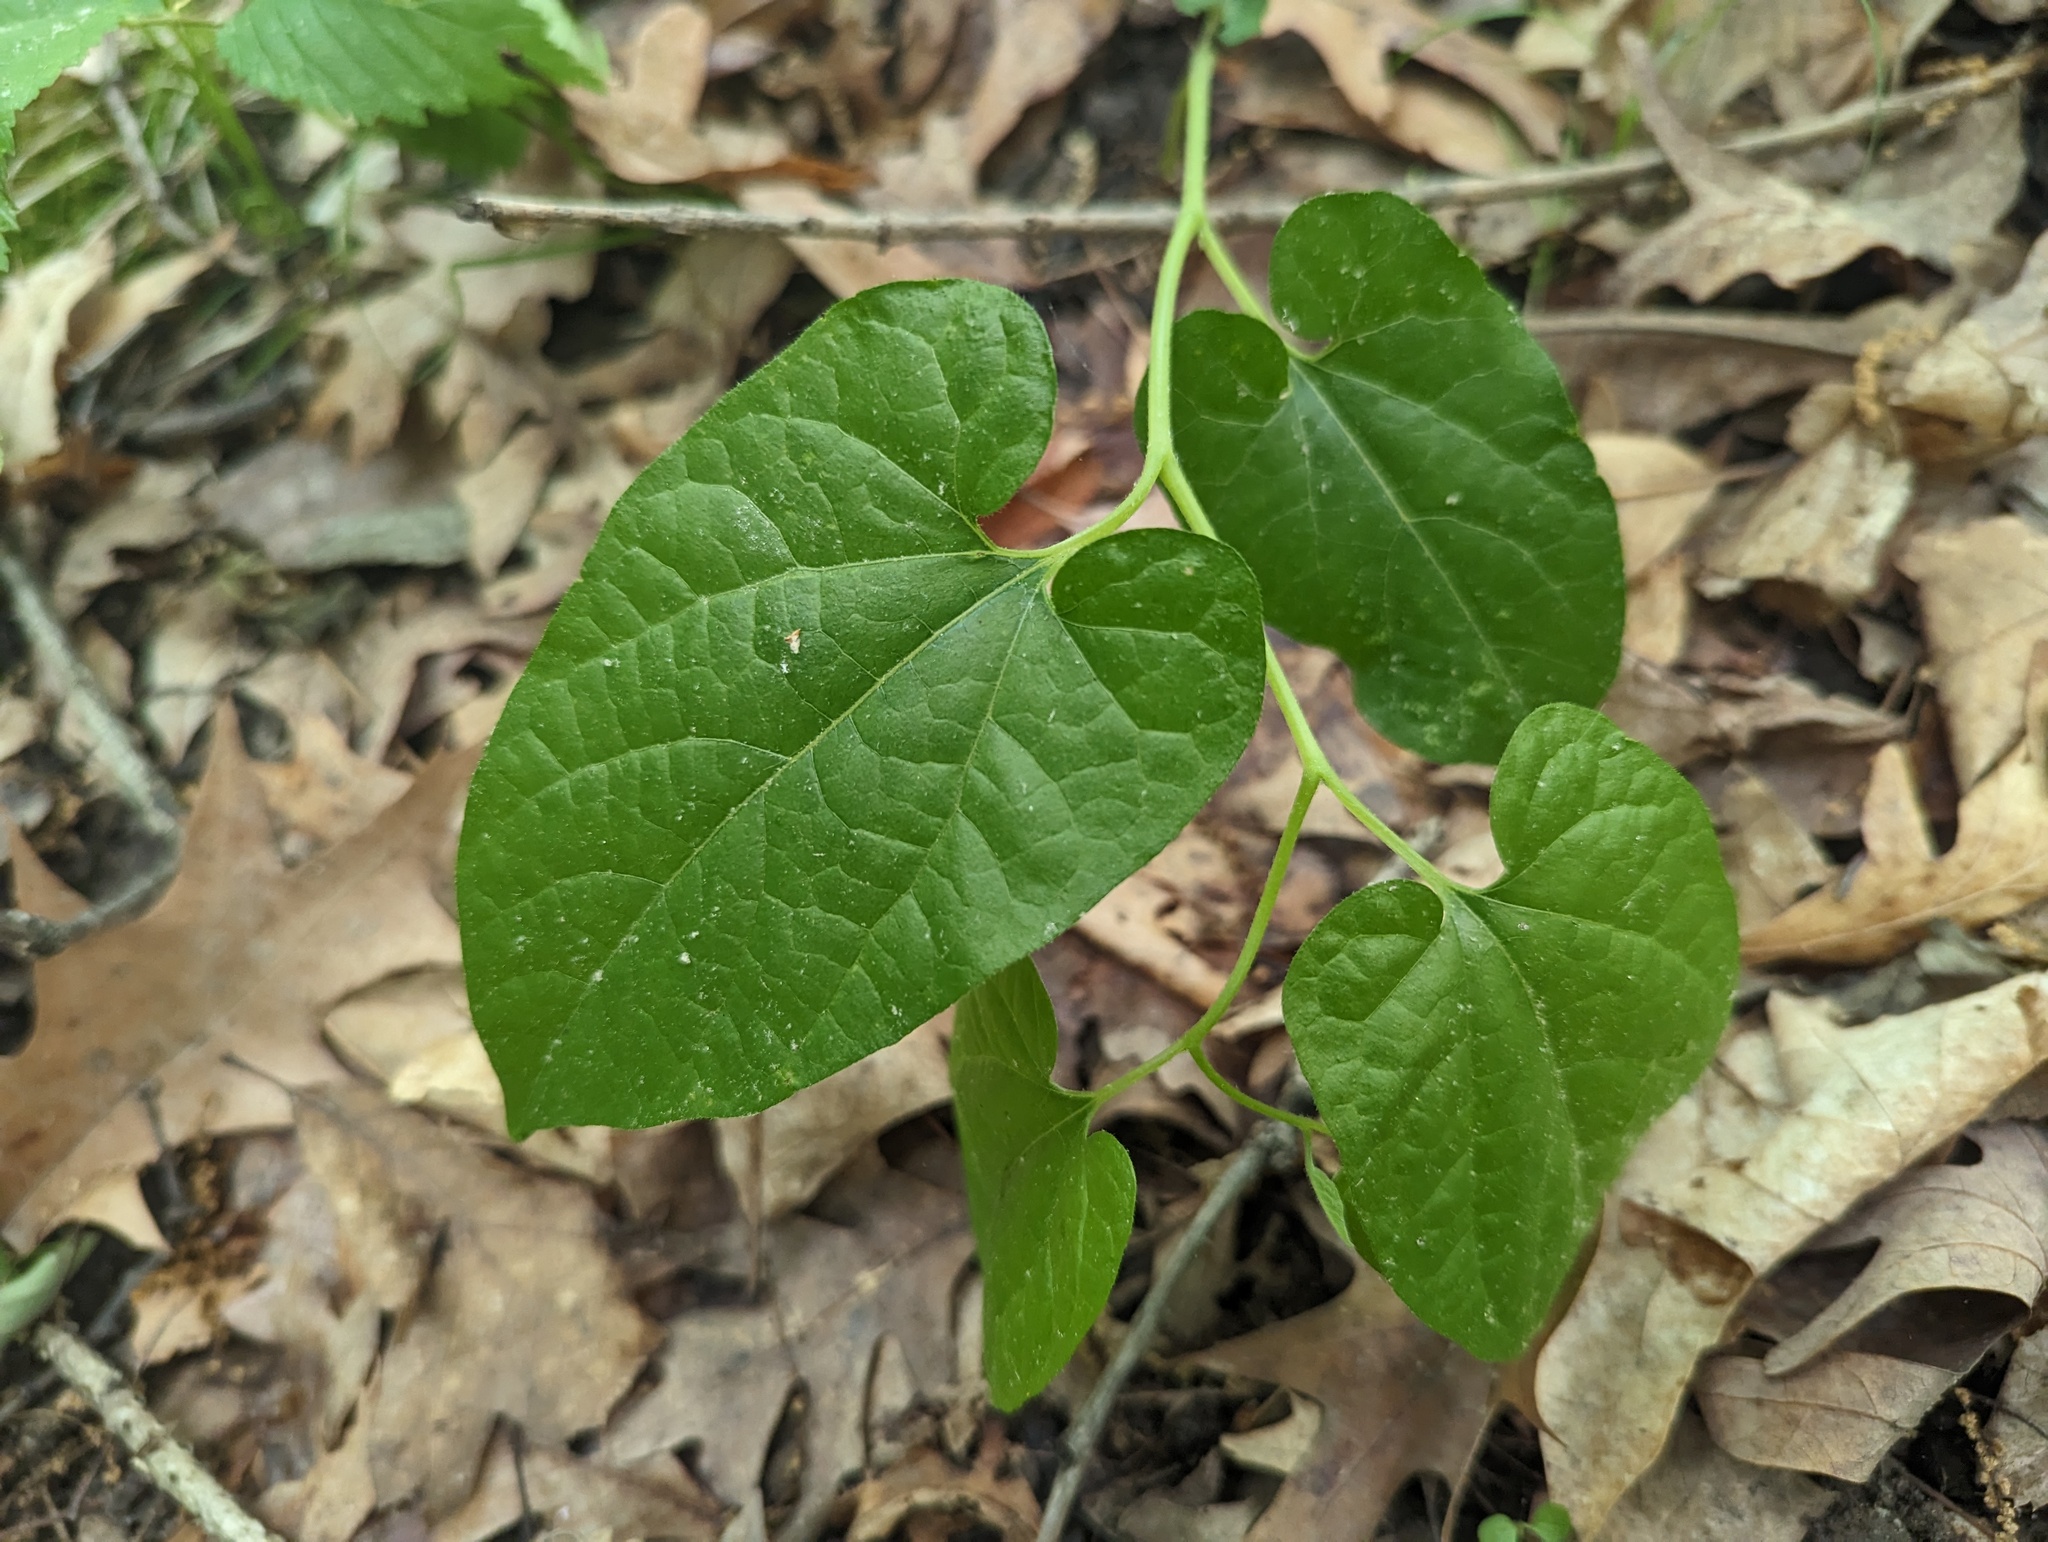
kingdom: Plantae
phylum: Tracheophyta
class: Magnoliopsida
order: Piperales
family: Aristolochiaceae
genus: Endodeca
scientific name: Endodeca serpentaria
